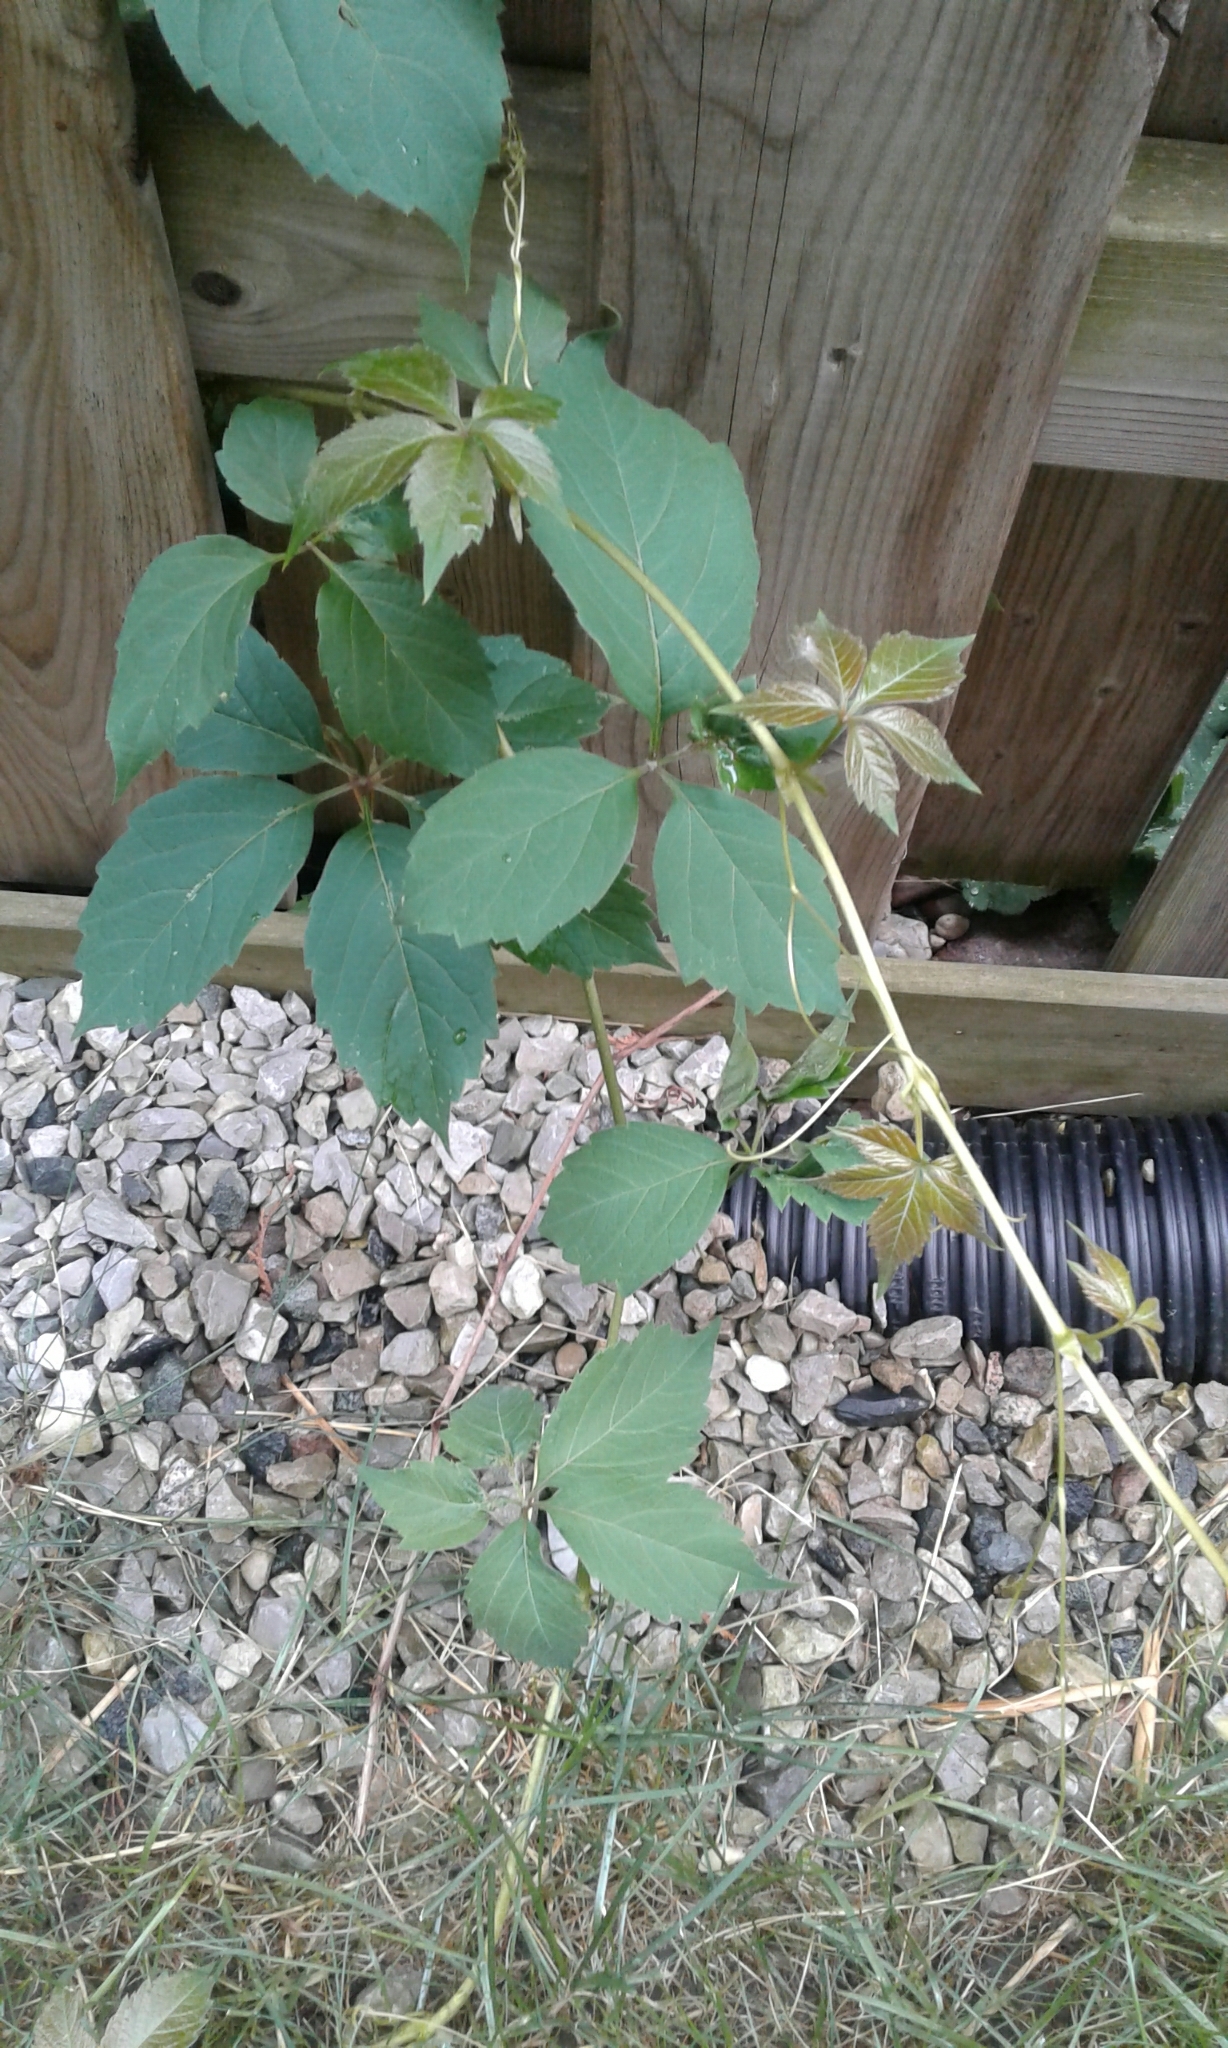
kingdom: Plantae
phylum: Tracheophyta
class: Magnoliopsida
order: Vitales
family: Vitaceae
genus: Parthenocissus
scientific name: Parthenocissus quinquefolia
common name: Virginia-creeper
